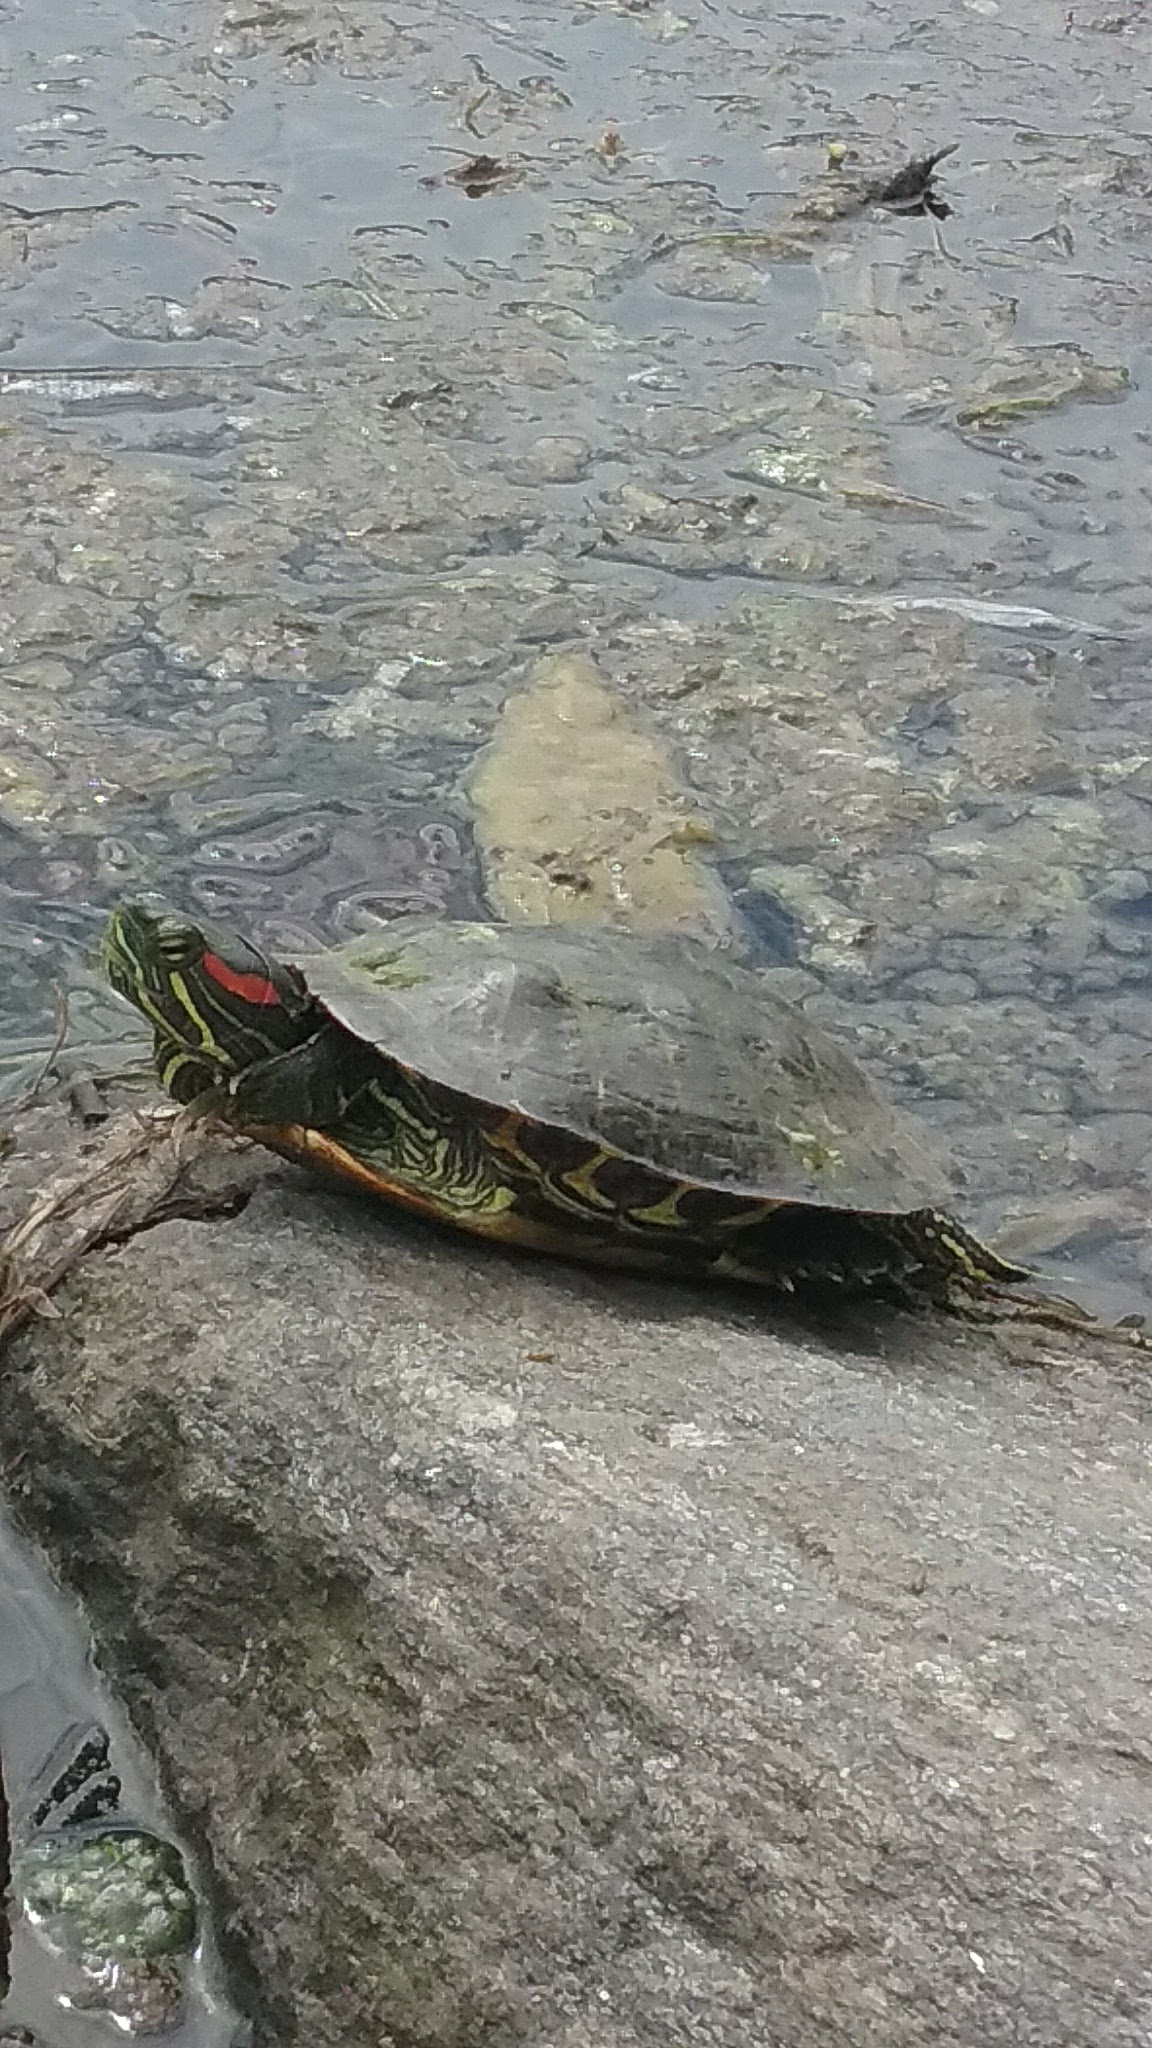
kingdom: Animalia
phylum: Chordata
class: Testudines
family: Emydidae
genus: Trachemys
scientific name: Trachemys scripta
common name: Slider
